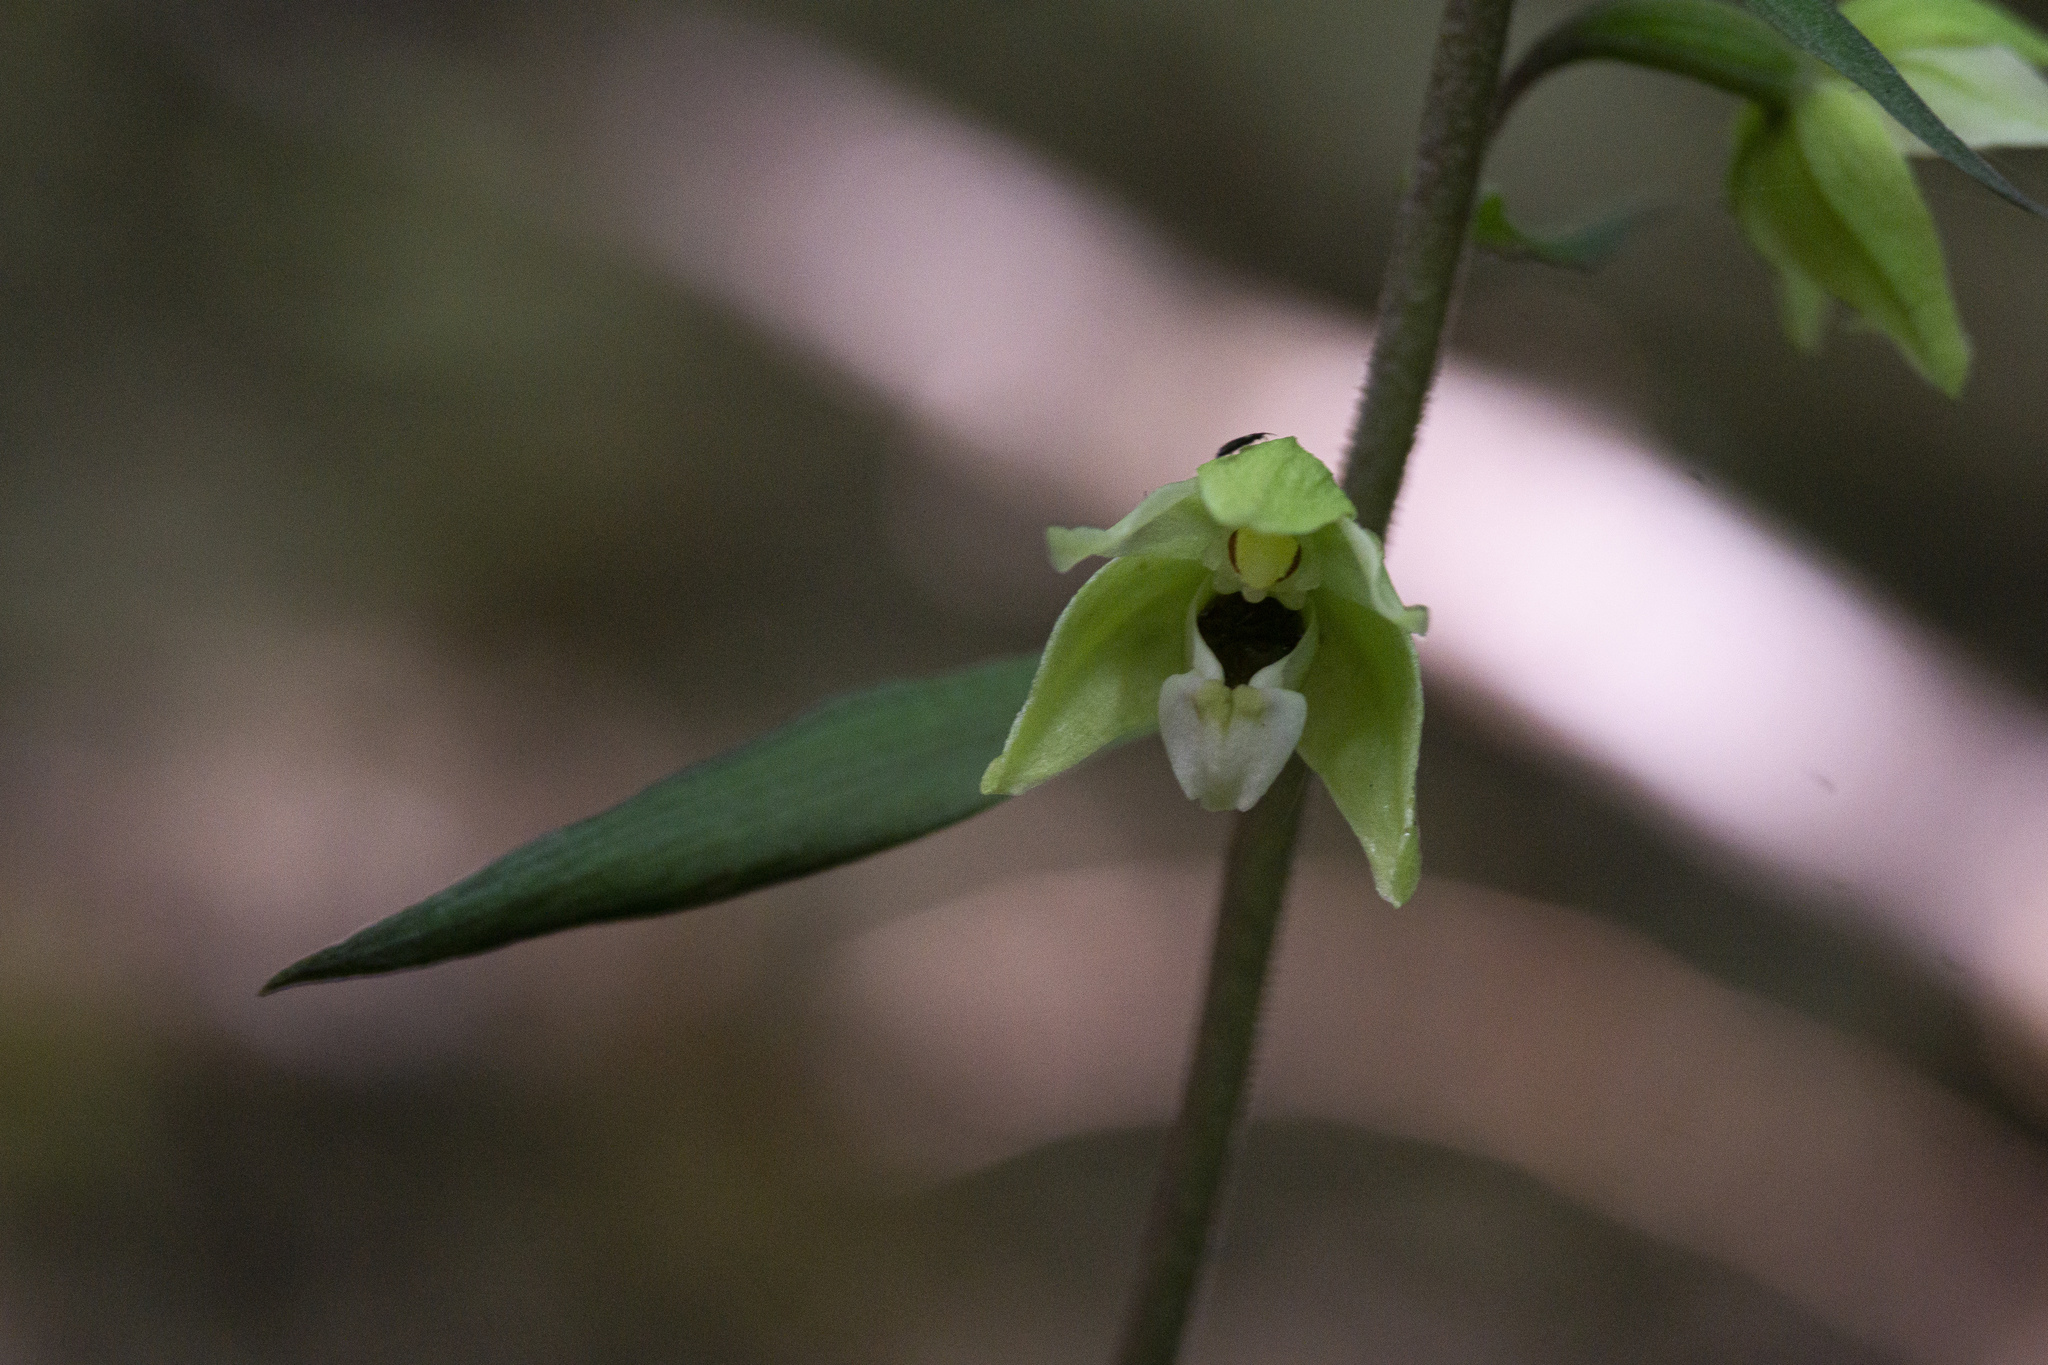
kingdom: Plantae
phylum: Tracheophyta
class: Liliopsida
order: Asparagales
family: Orchidaceae
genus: Epipactis
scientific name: Epipactis purpurata
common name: Violet helleborine
